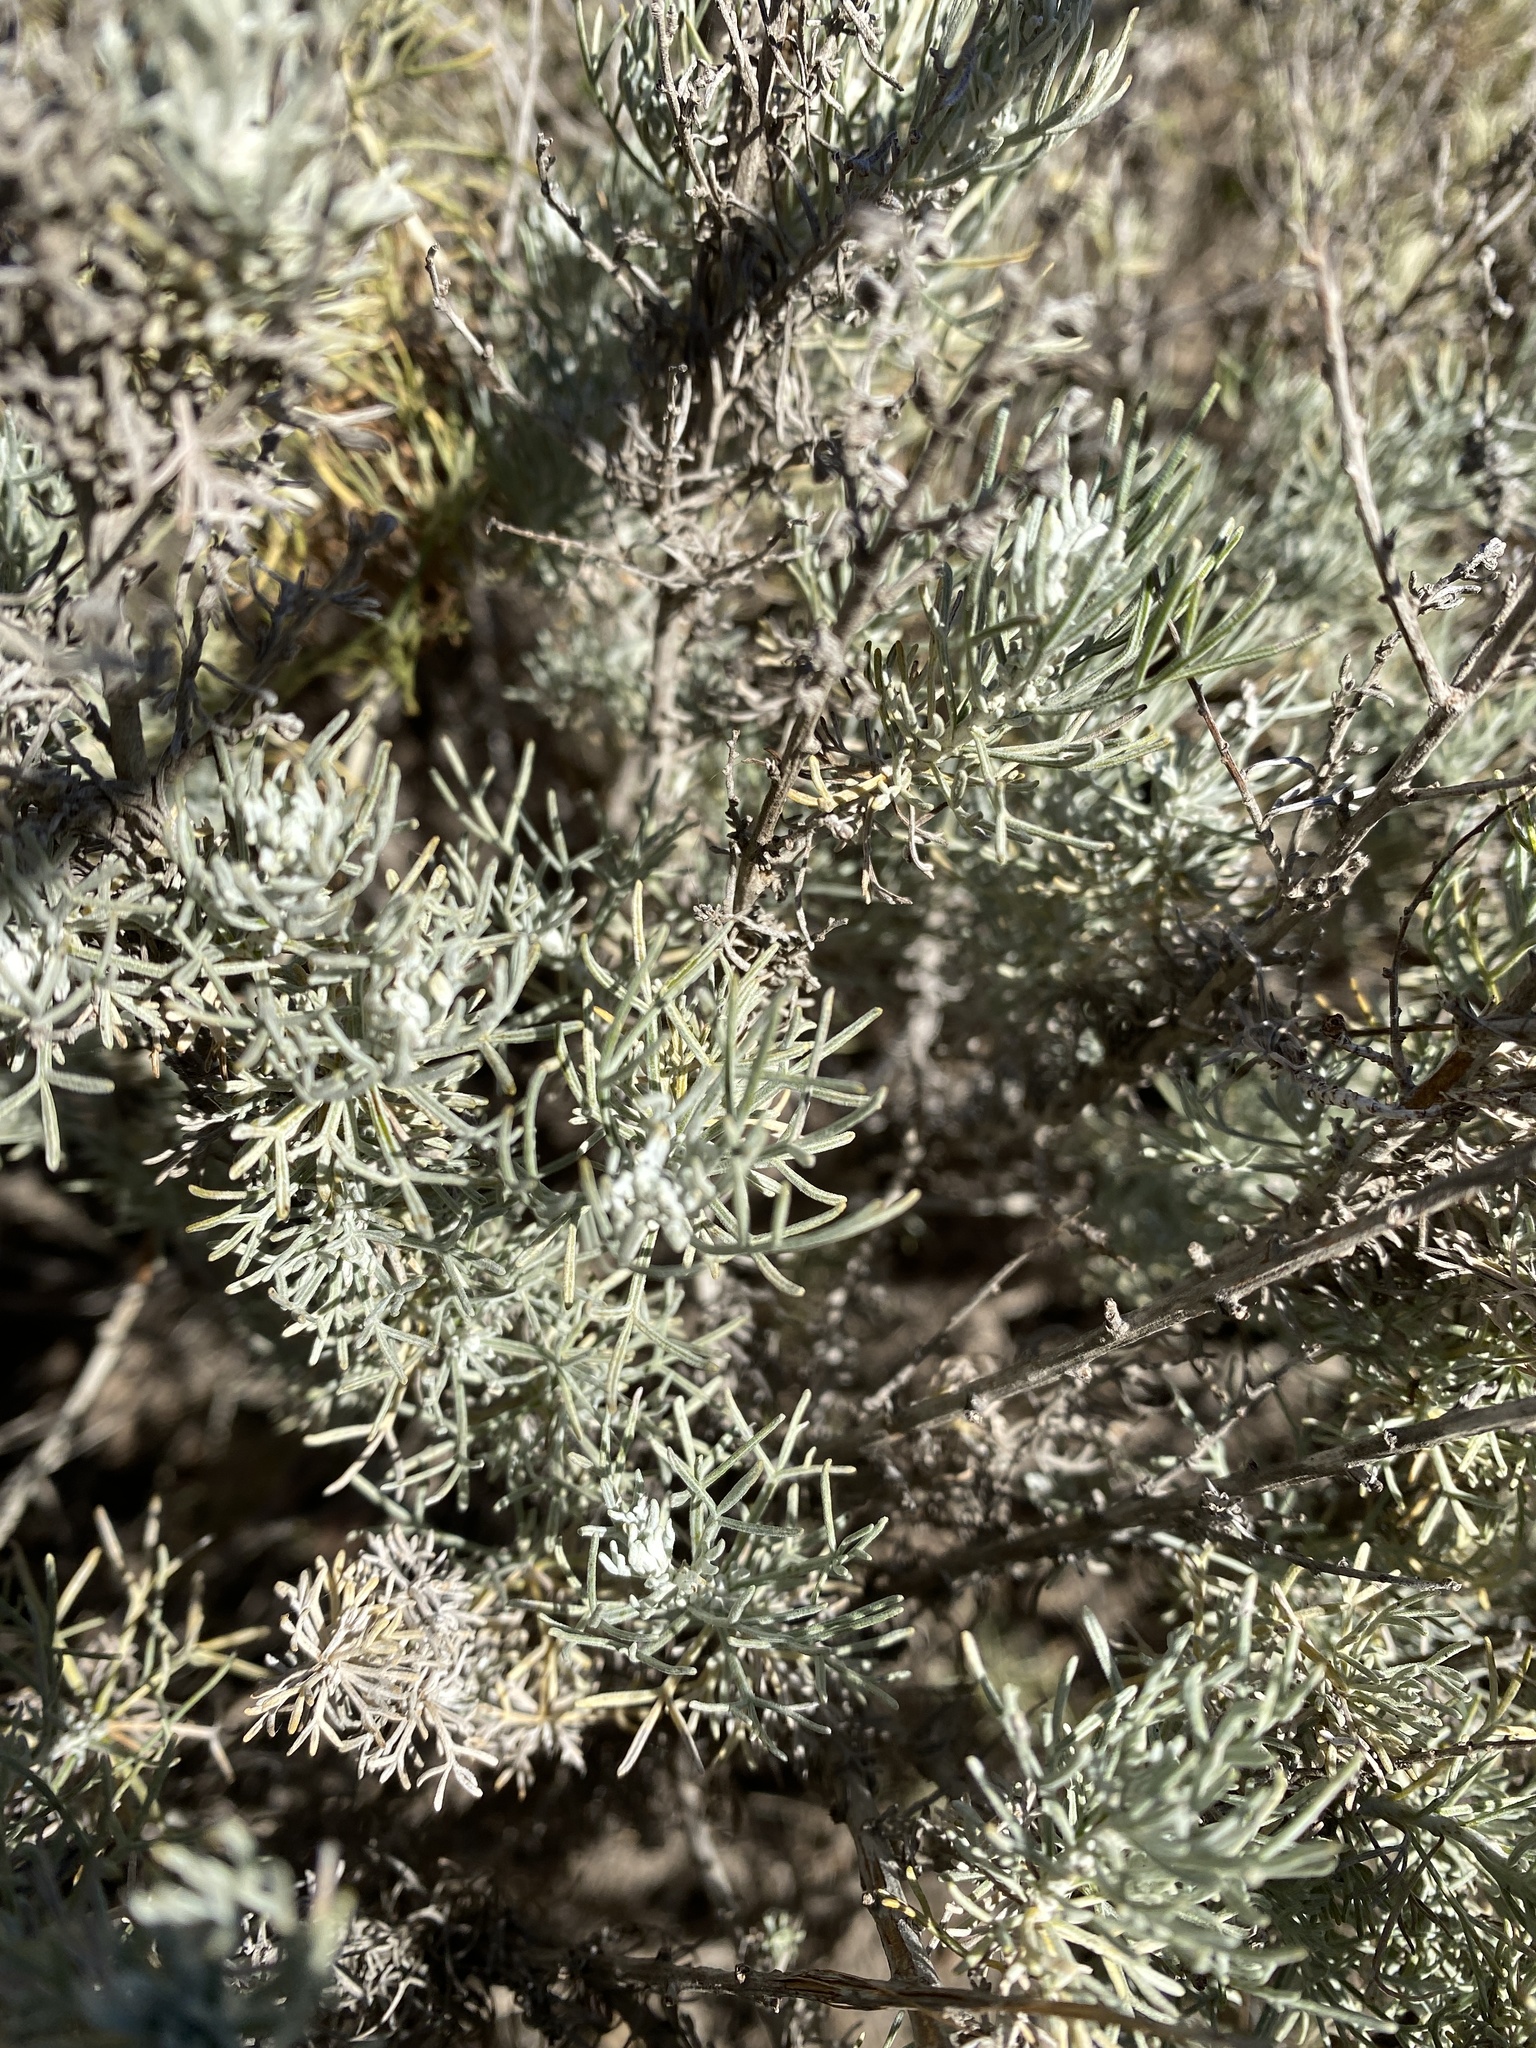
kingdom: Plantae
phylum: Tracheophyta
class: Magnoliopsida
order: Asterales
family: Asteraceae
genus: Artemisia
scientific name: Artemisia californica
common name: California sagebrush
